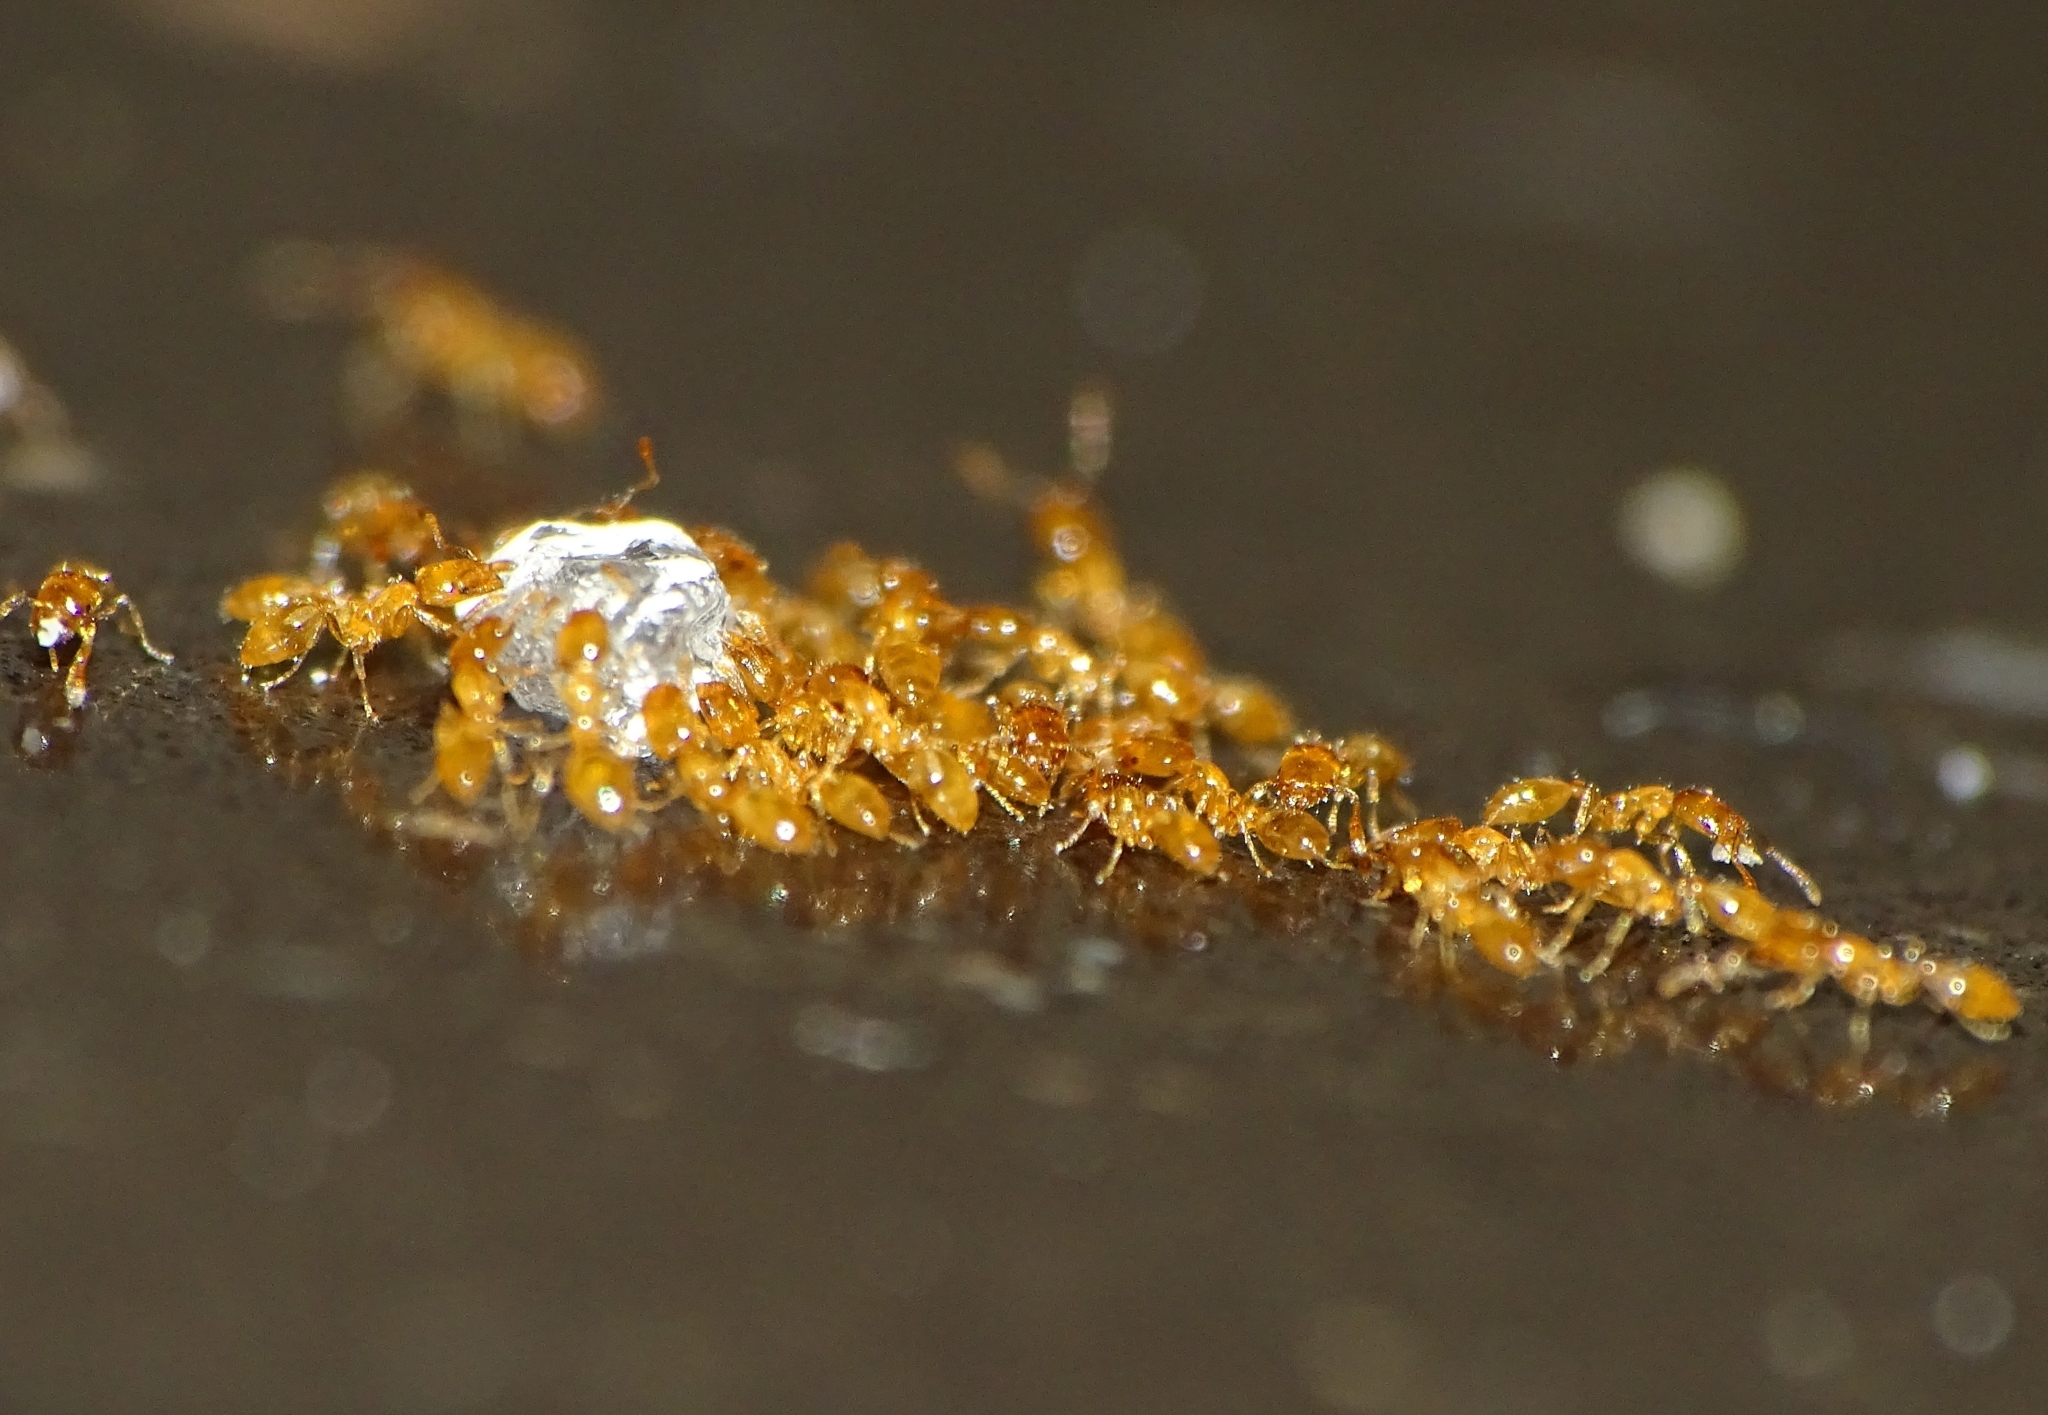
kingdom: Animalia
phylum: Arthropoda
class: Insecta
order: Hymenoptera
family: Formicidae
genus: Monomorium
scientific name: Monomorium atomum
